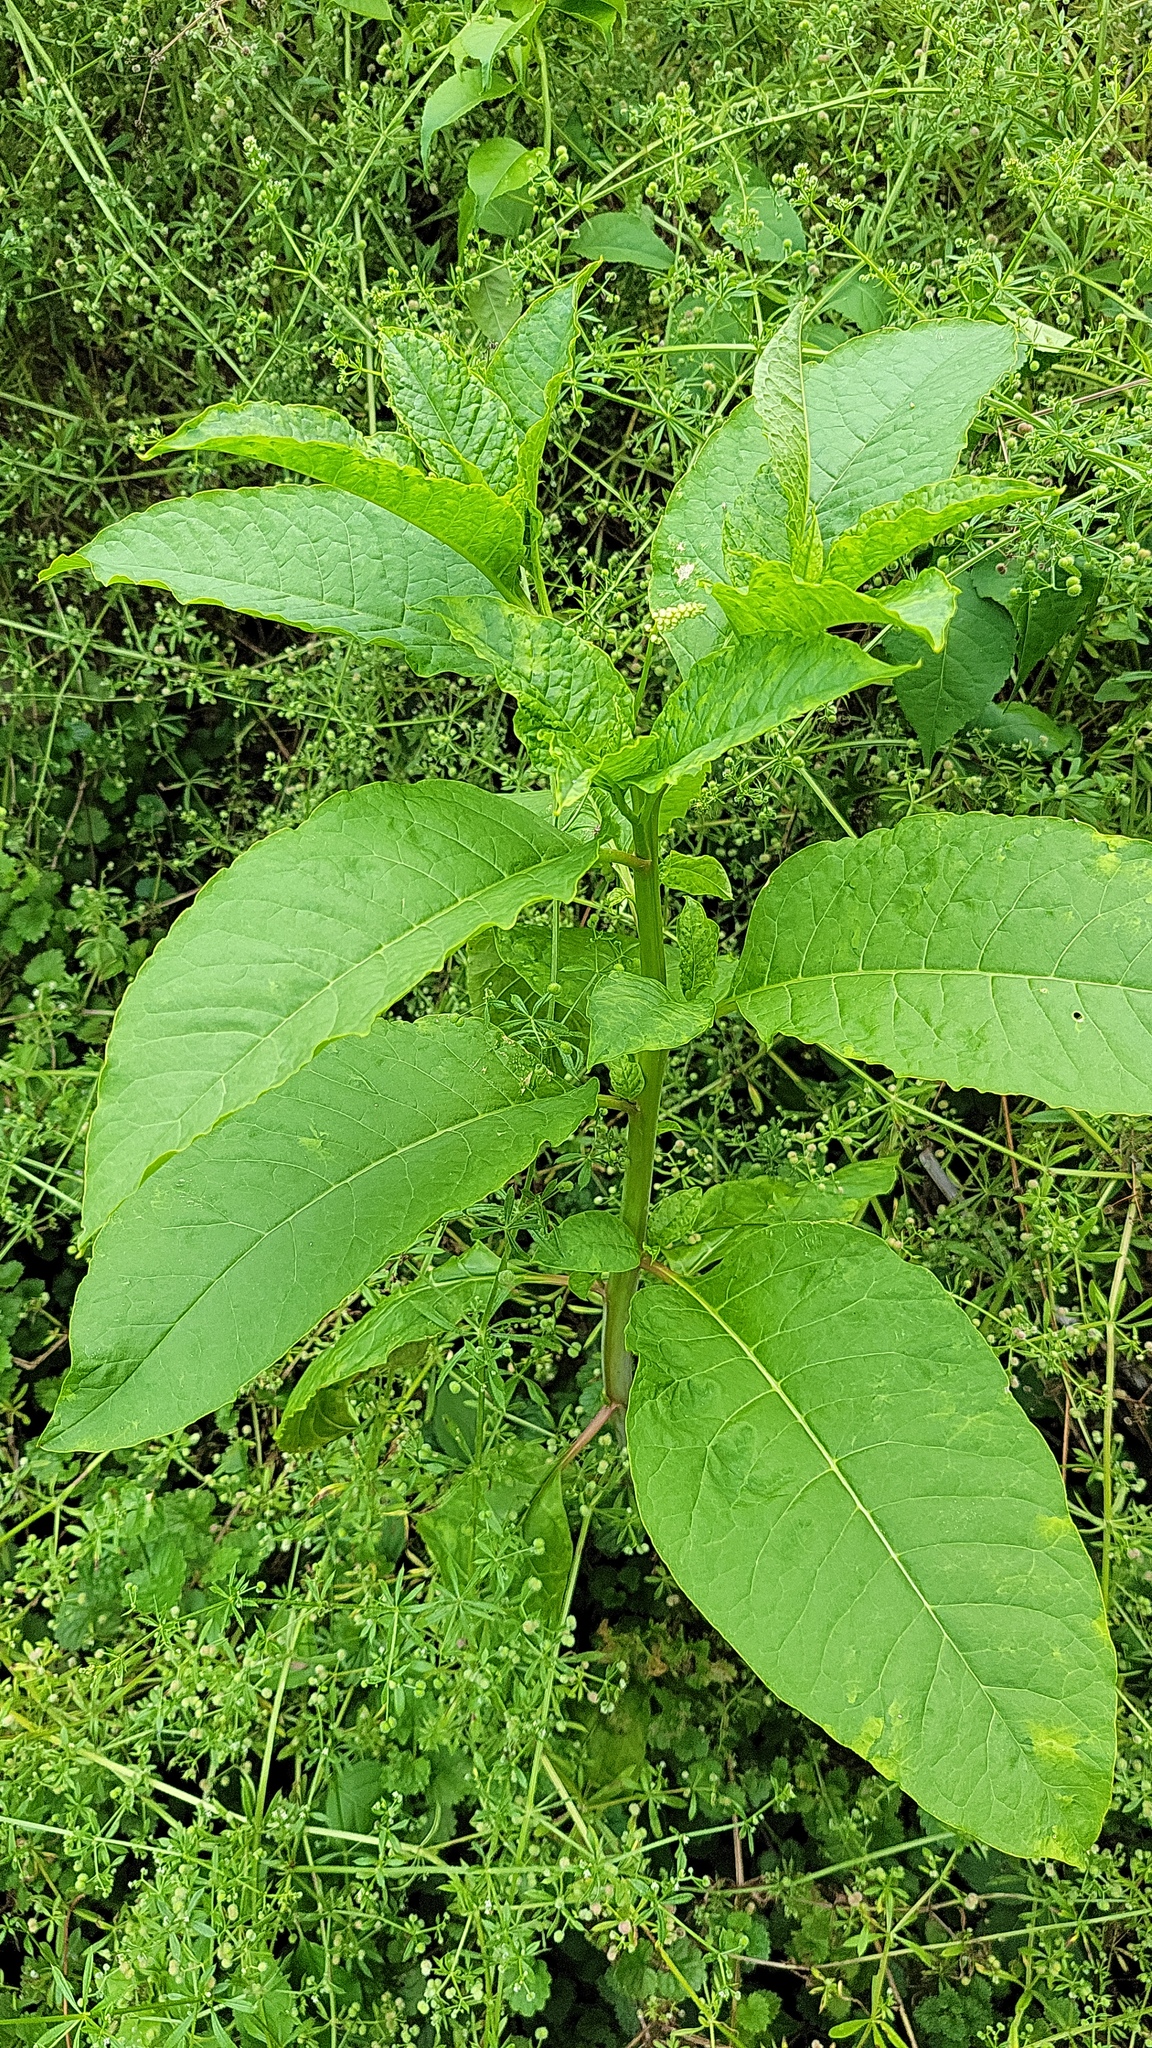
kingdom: Plantae
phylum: Tracheophyta
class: Magnoliopsida
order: Caryophyllales
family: Phytolaccaceae
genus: Phytolacca
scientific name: Phytolacca americana
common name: American pokeweed
